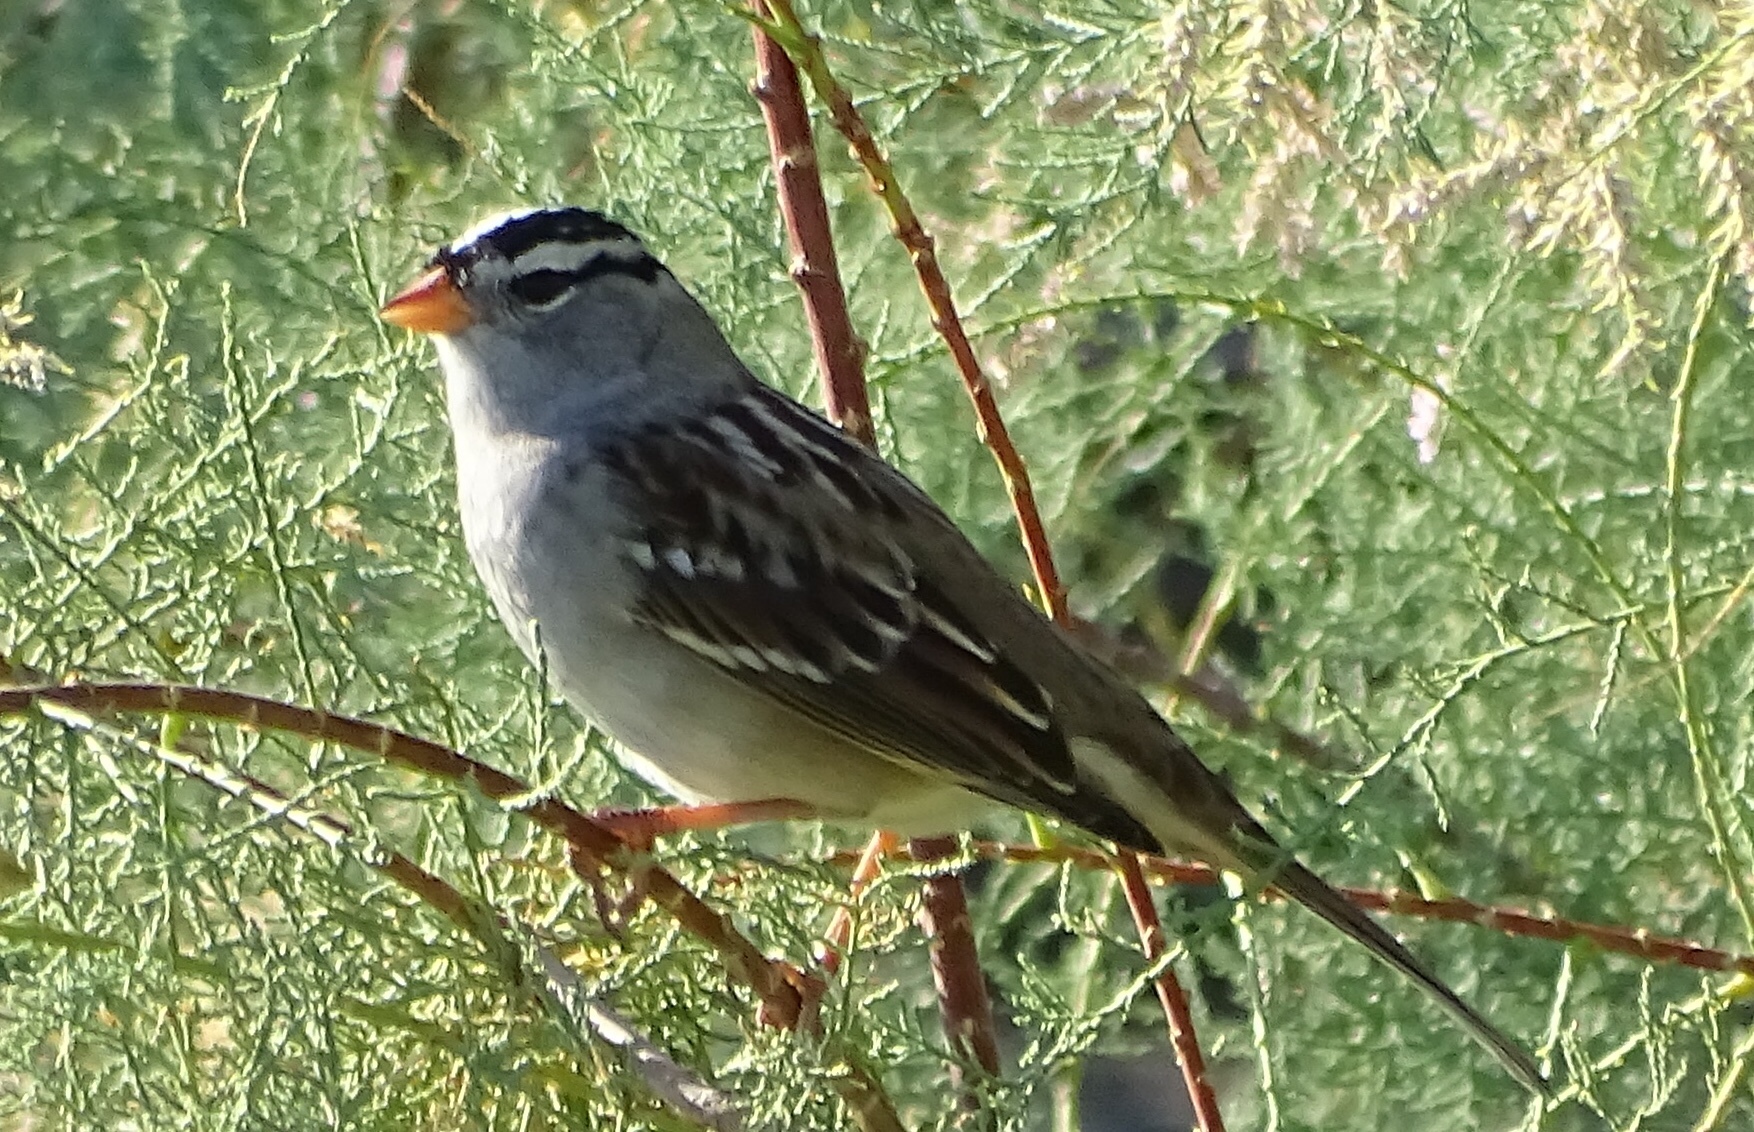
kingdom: Animalia
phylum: Chordata
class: Aves
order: Passeriformes
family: Passerellidae
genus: Zonotrichia
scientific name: Zonotrichia leucophrys
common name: White-crowned sparrow
